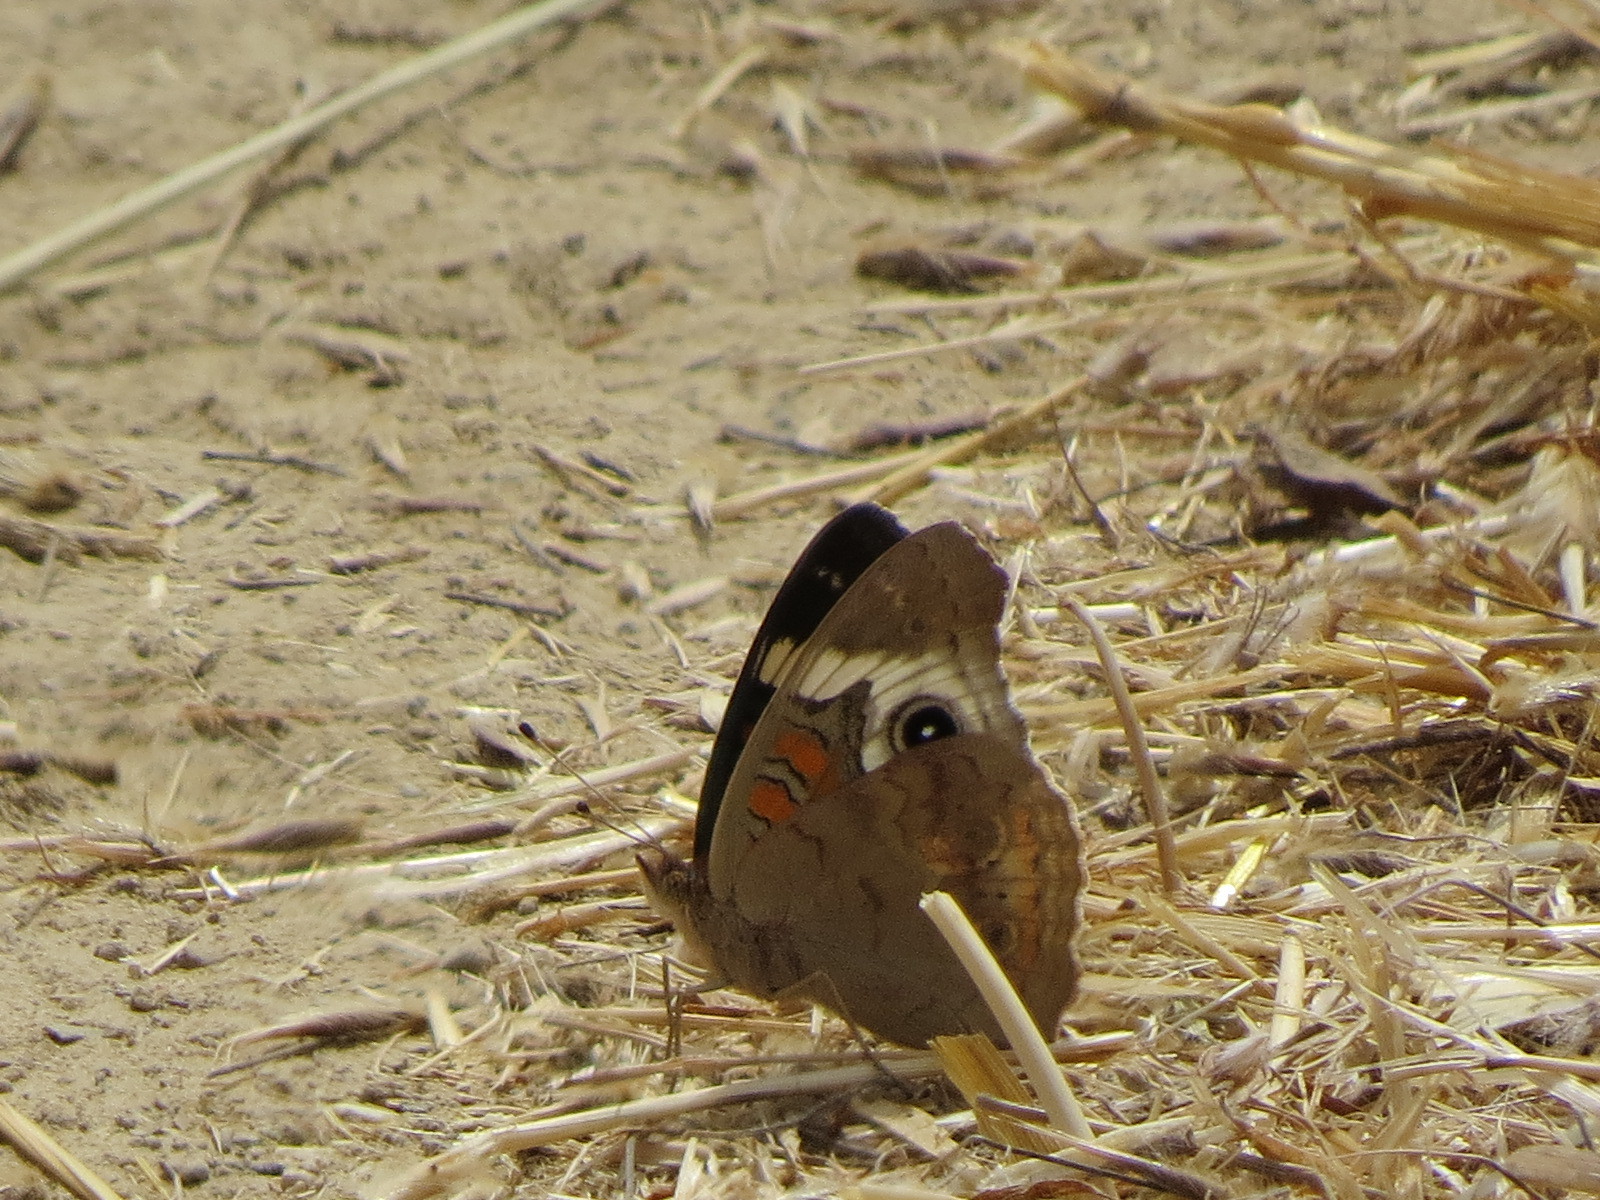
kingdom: Animalia
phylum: Arthropoda
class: Insecta
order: Lepidoptera
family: Nymphalidae
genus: Junonia
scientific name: Junonia grisea
